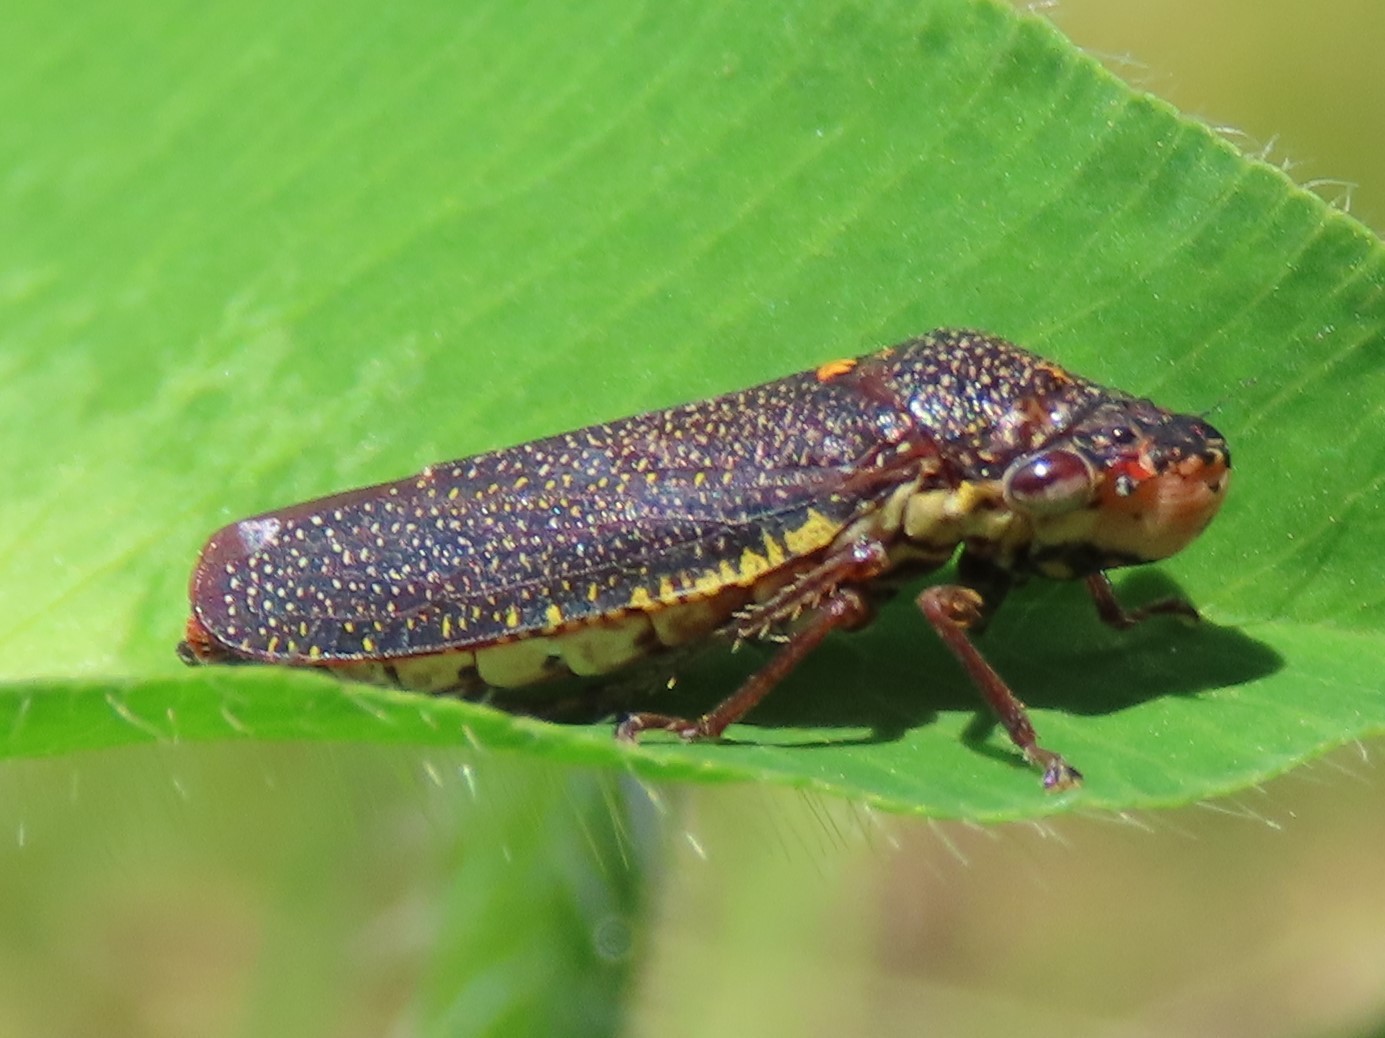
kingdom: Animalia
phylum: Arthropoda
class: Insecta
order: Hemiptera
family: Cicadellidae
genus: Paraulacizes
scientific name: Paraulacizes irrorata
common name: Speckled sharpshooter
